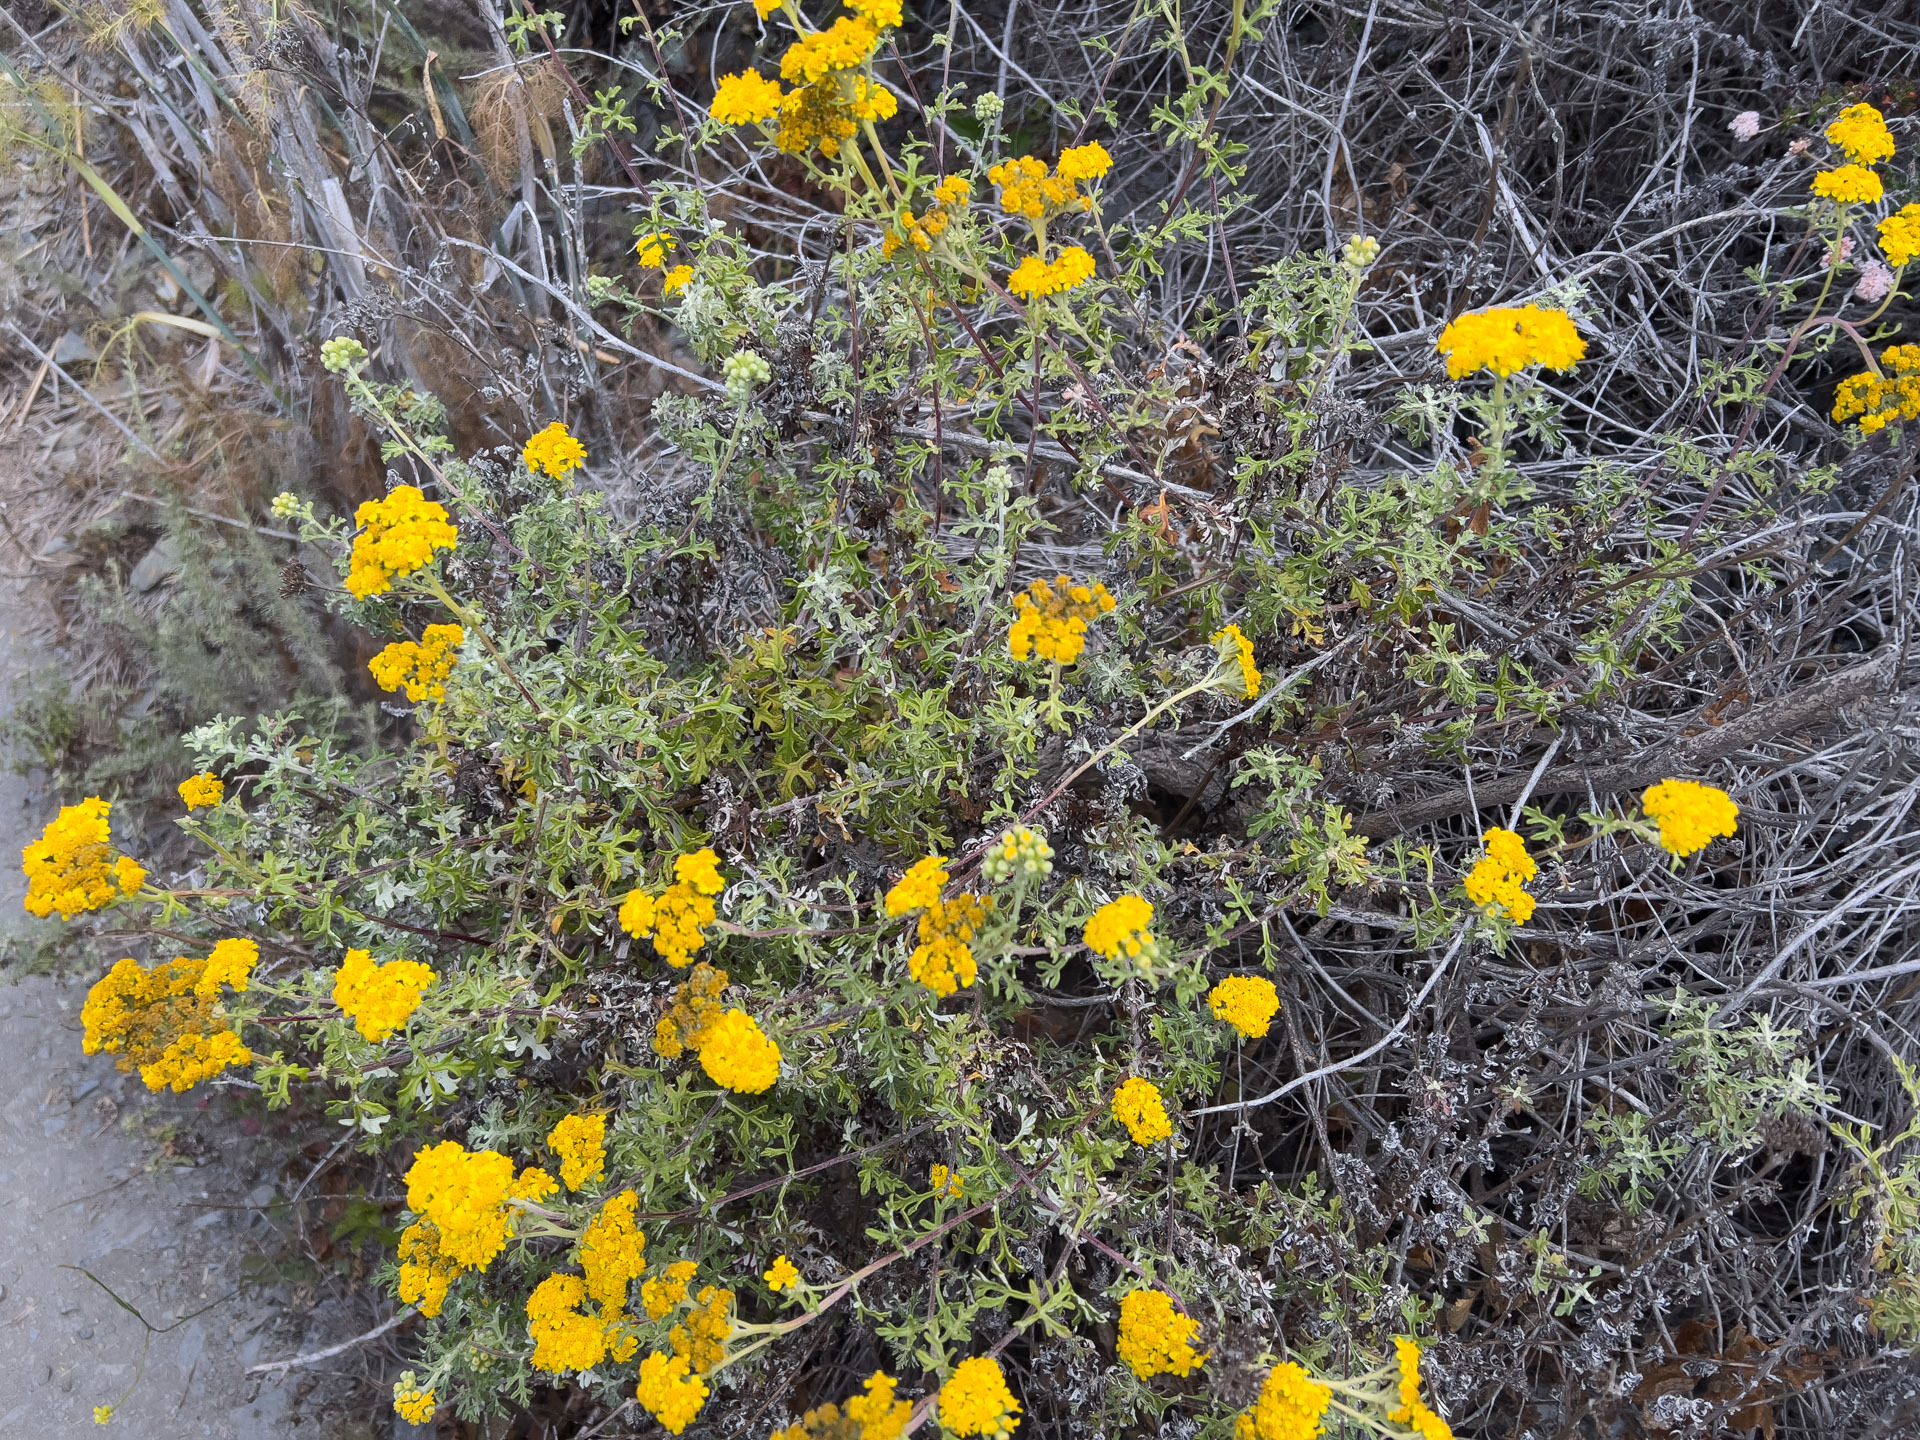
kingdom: Plantae
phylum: Tracheophyta
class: Magnoliopsida
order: Asterales
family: Asteraceae
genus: Eriophyllum
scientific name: Eriophyllum staechadifolium
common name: Lizardtail
